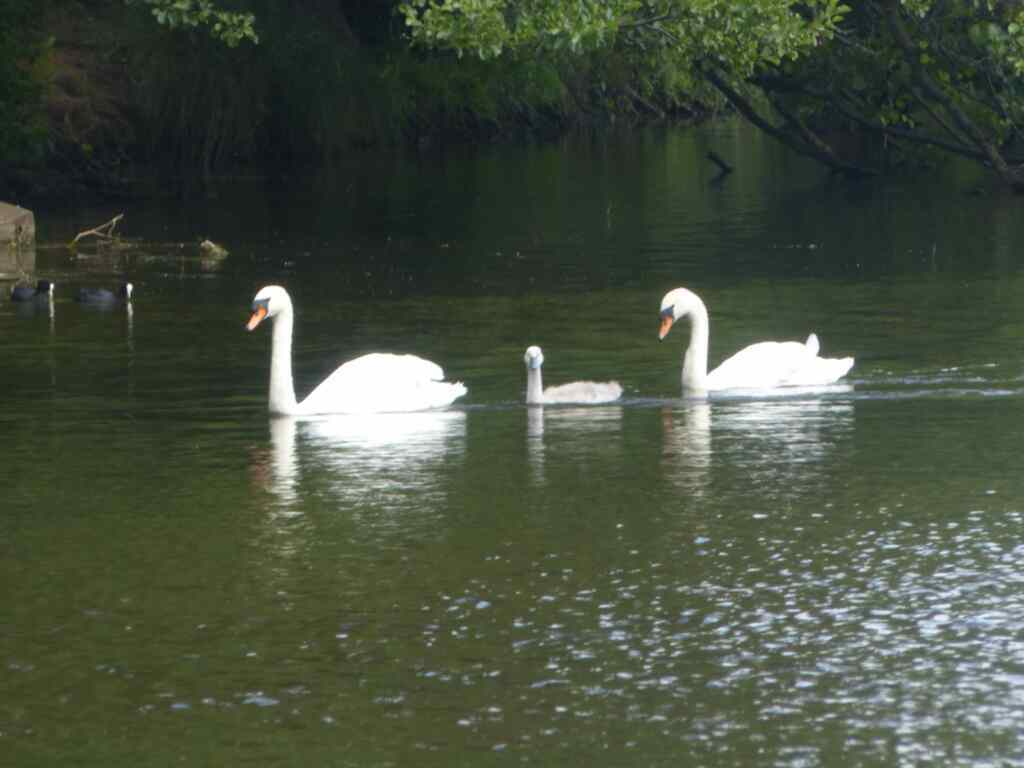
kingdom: Animalia
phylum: Chordata
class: Aves
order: Anseriformes
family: Anatidae
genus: Cygnus
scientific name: Cygnus olor
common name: Mute swan
